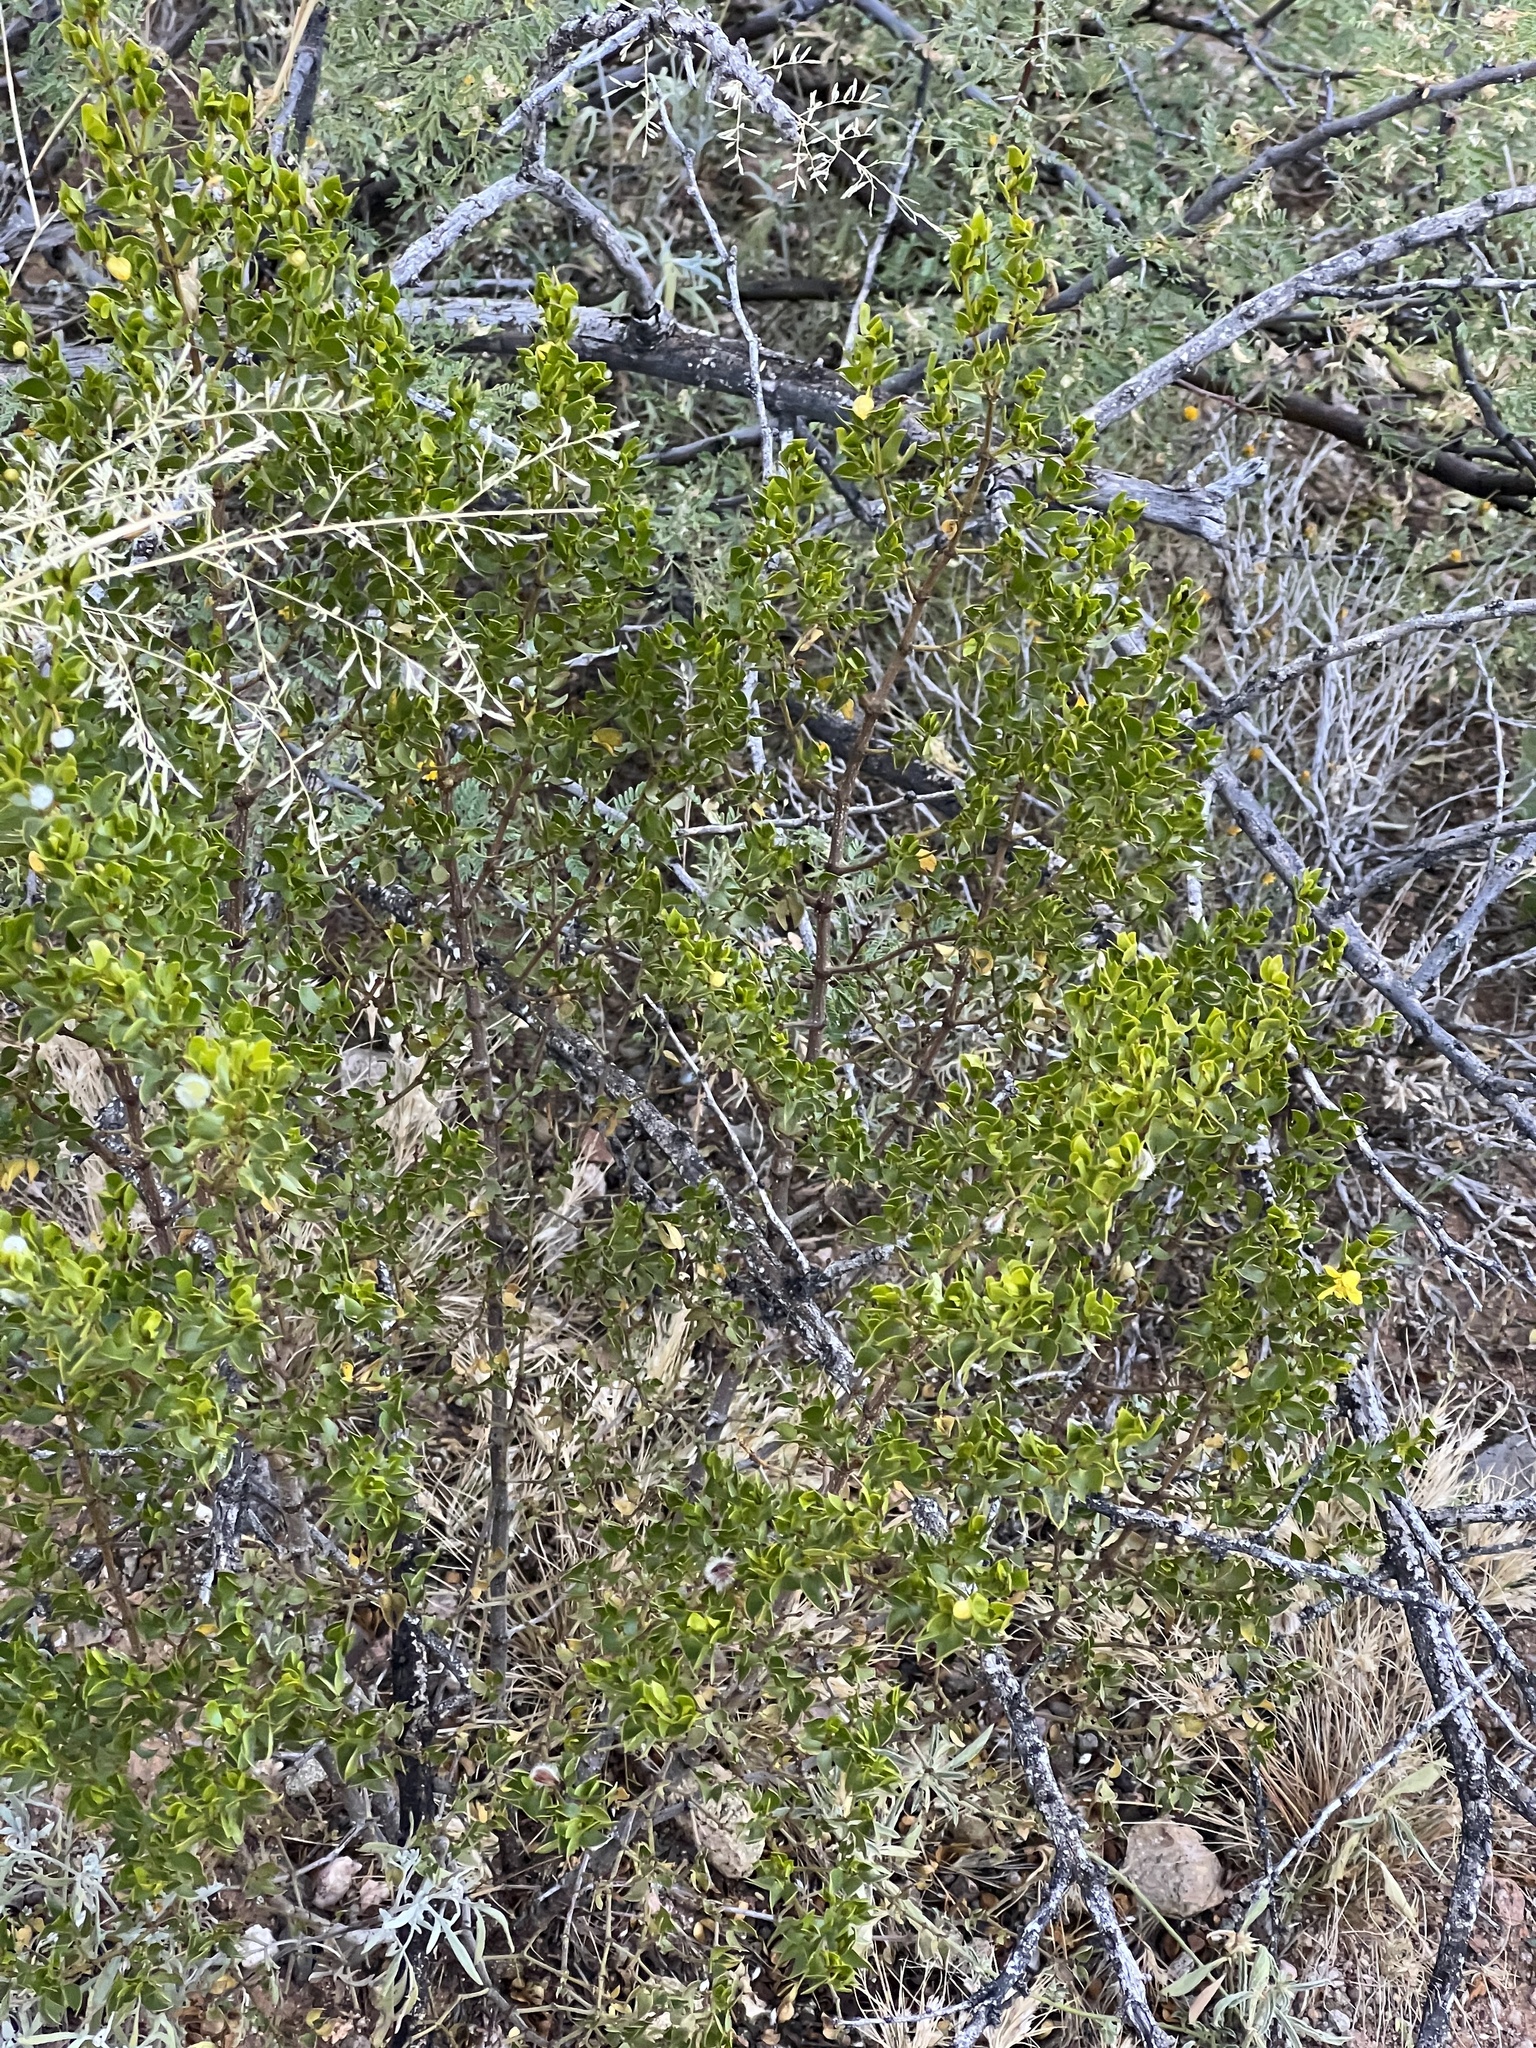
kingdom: Plantae
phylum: Tracheophyta
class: Magnoliopsida
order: Zygophyllales
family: Zygophyllaceae
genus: Larrea
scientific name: Larrea tridentata
